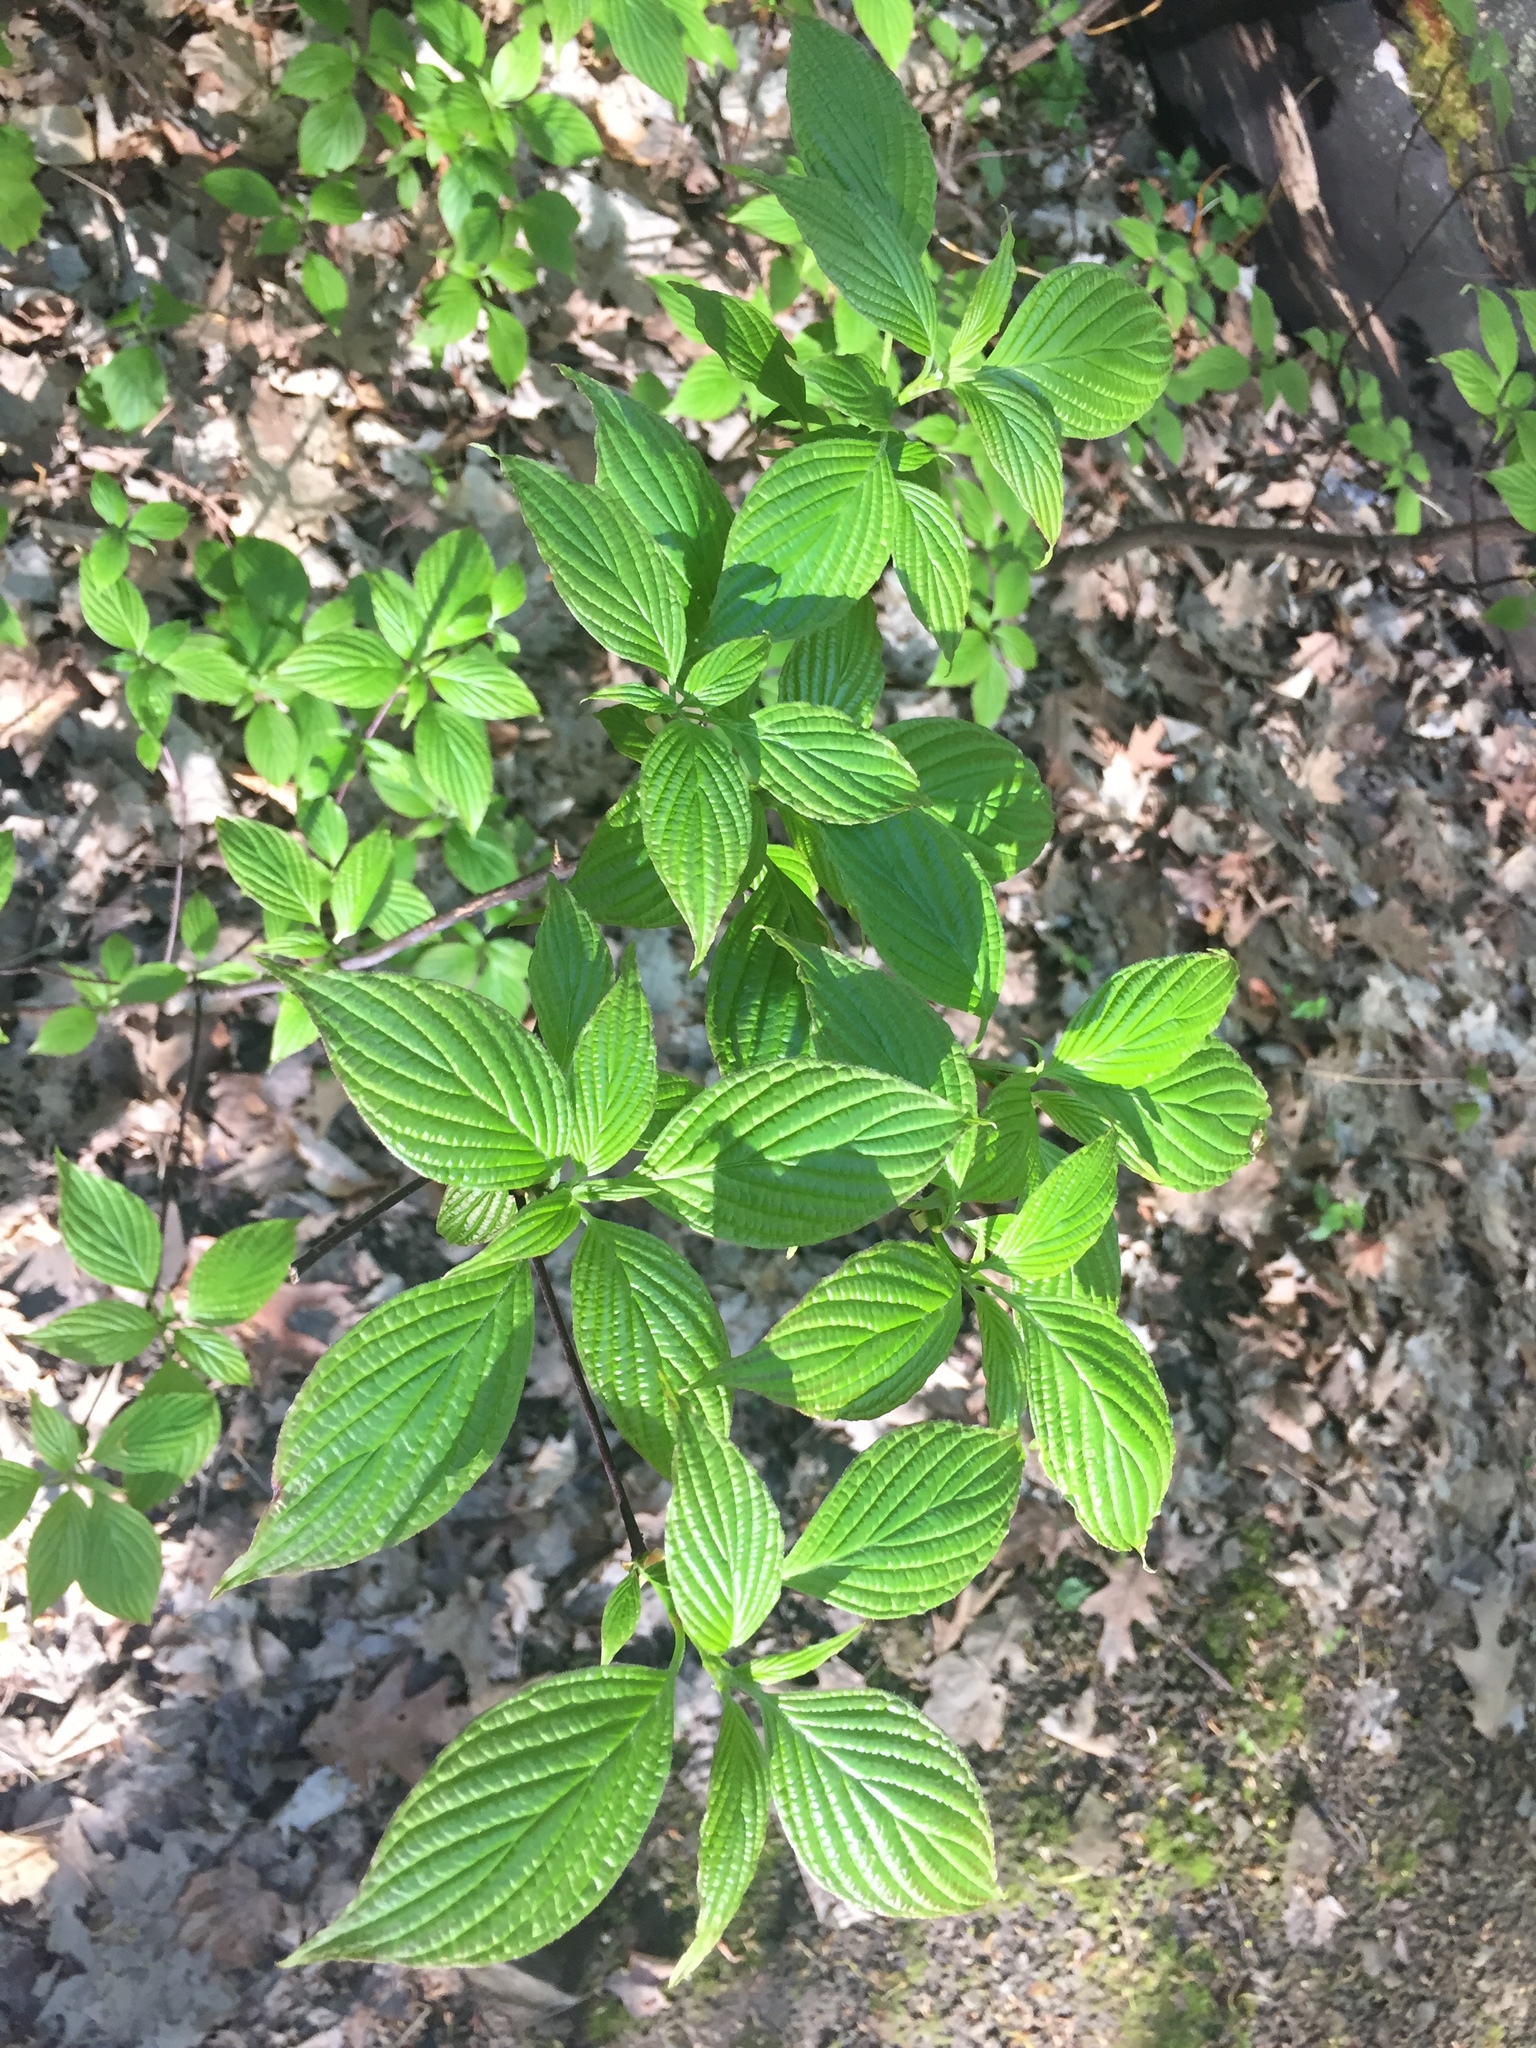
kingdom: Plantae
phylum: Tracheophyta
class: Magnoliopsida
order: Cornales
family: Cornaceae
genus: Cornus
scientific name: Cornus alternifolia
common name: Pagoda dogwood
